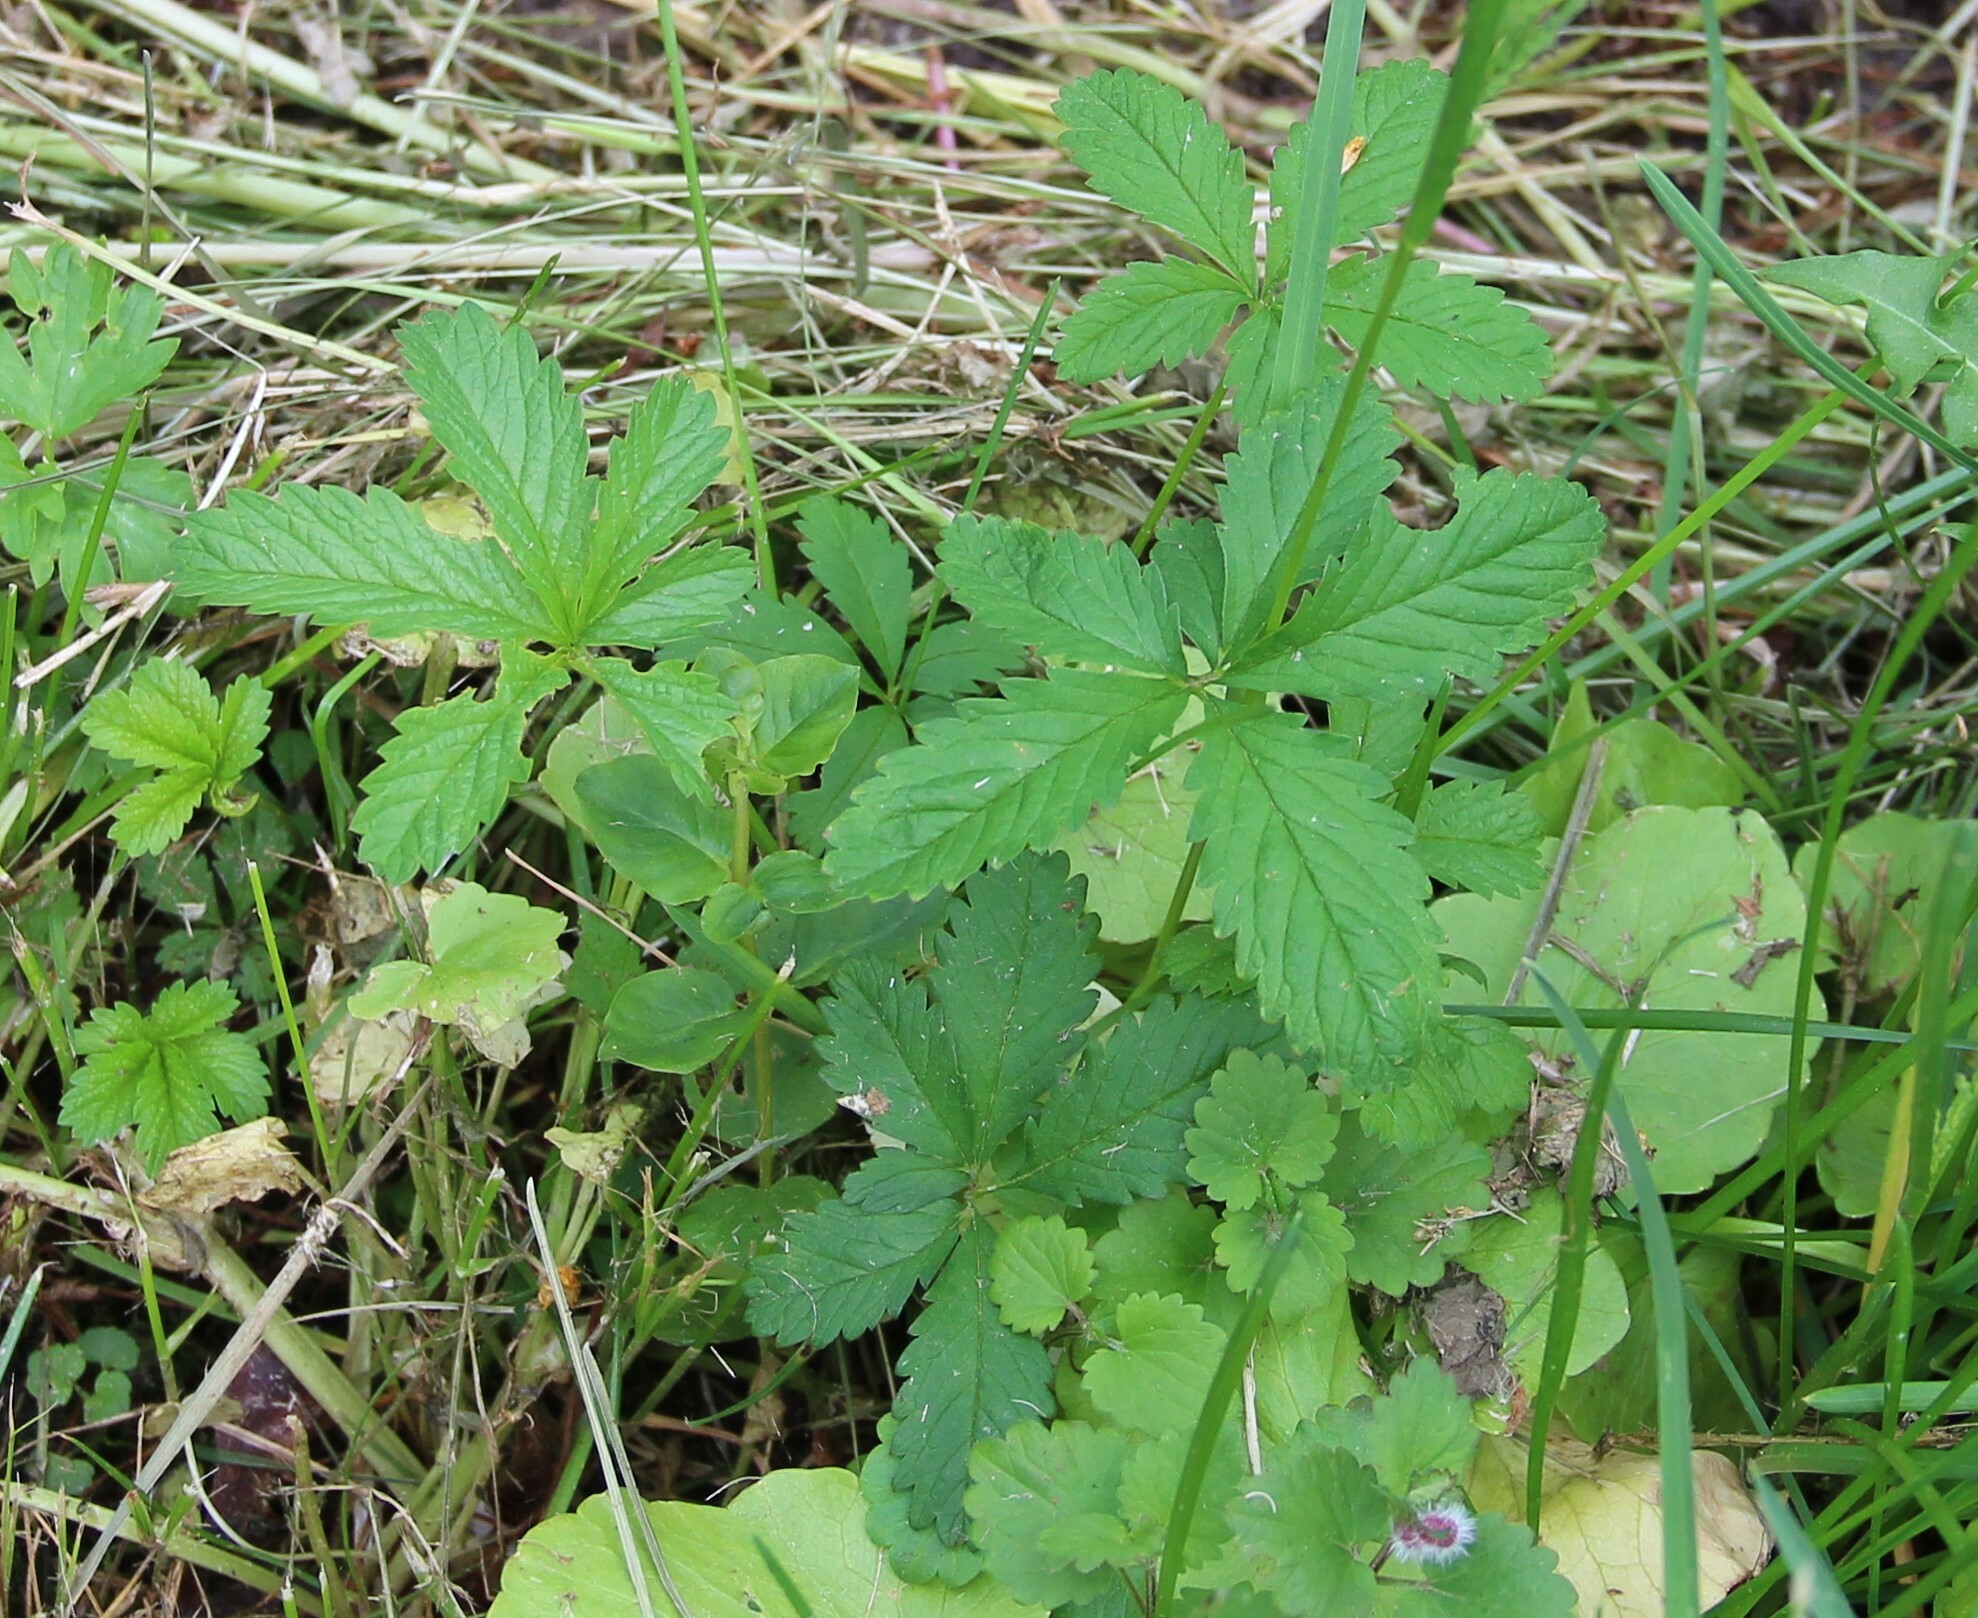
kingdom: Plantae
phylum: Tracheophyta
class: Magnoliopsida
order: Rosales
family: Rosaceae
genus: Potentilla
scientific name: Potentilla reptans
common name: Creeping cinquefoil
